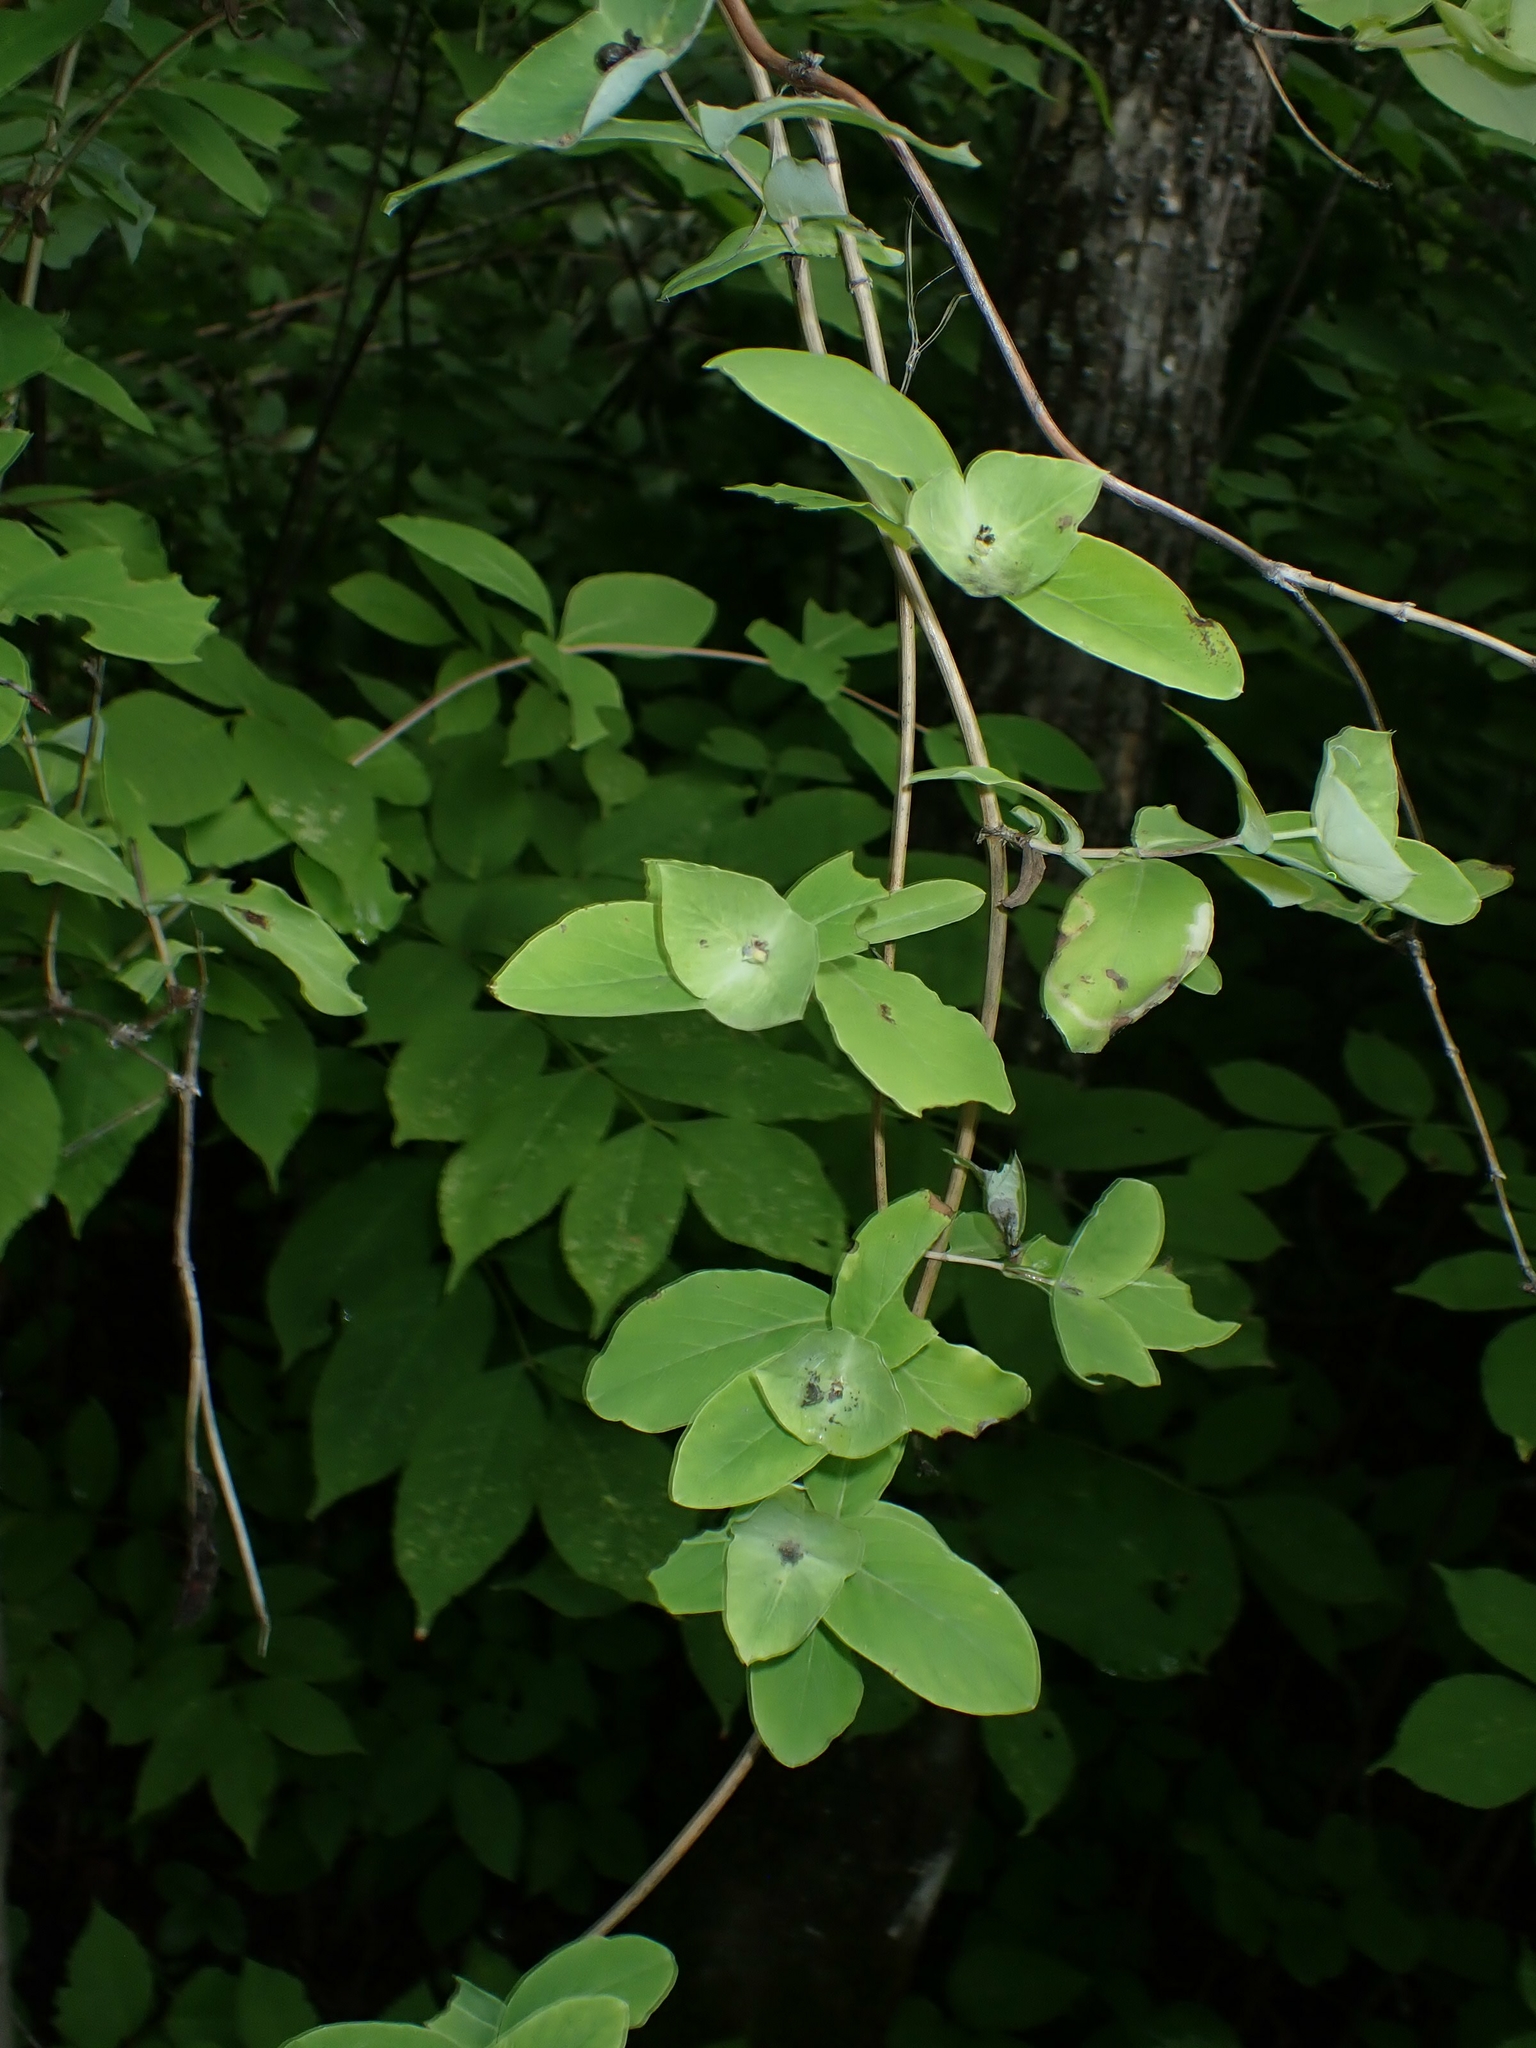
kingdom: Plantae
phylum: Tracheophyta
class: Magnoliopsida
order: Dipsacales
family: Caprifoliaceae
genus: Lonicera
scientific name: Lonicera dioica
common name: Limber honeysuckle
